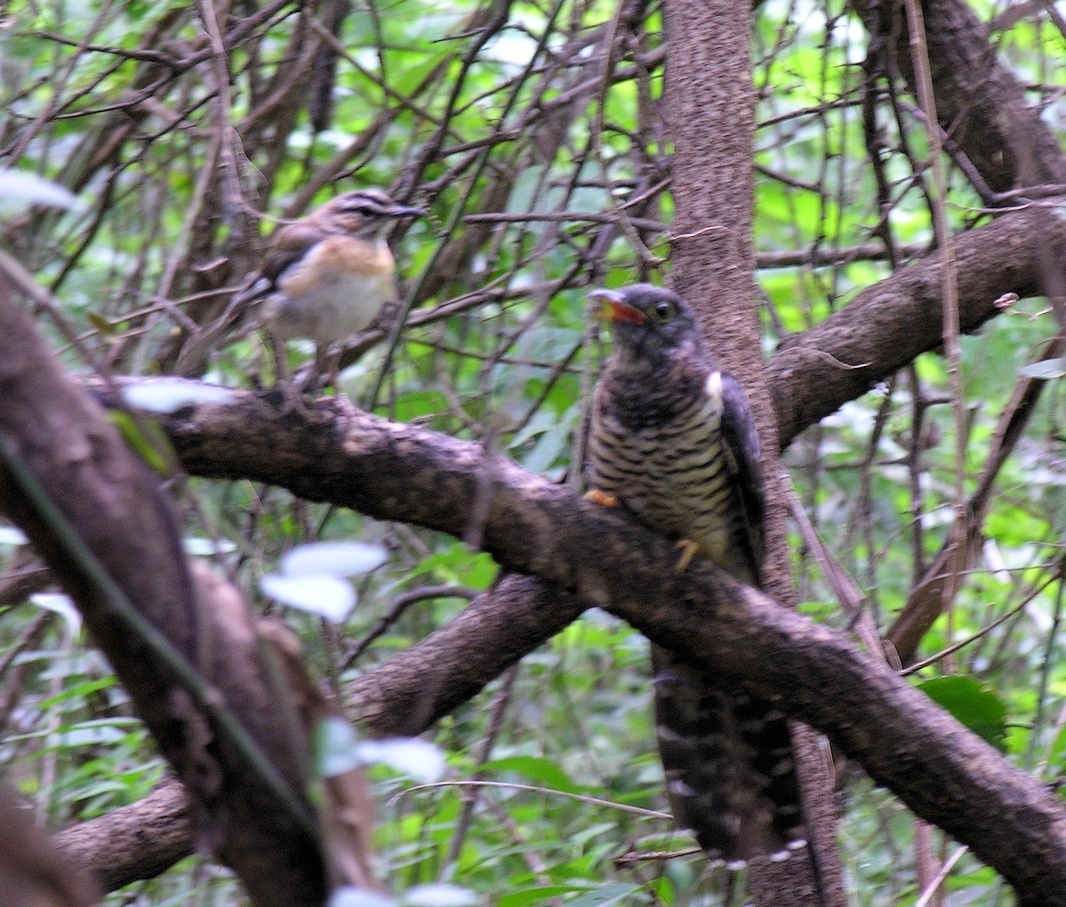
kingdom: Animalia
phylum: Chordata
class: Aves
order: Cuculiformes
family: Cuculidae
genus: Cuculus
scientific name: Cuculus solitarius
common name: Red-chested cuckoo
